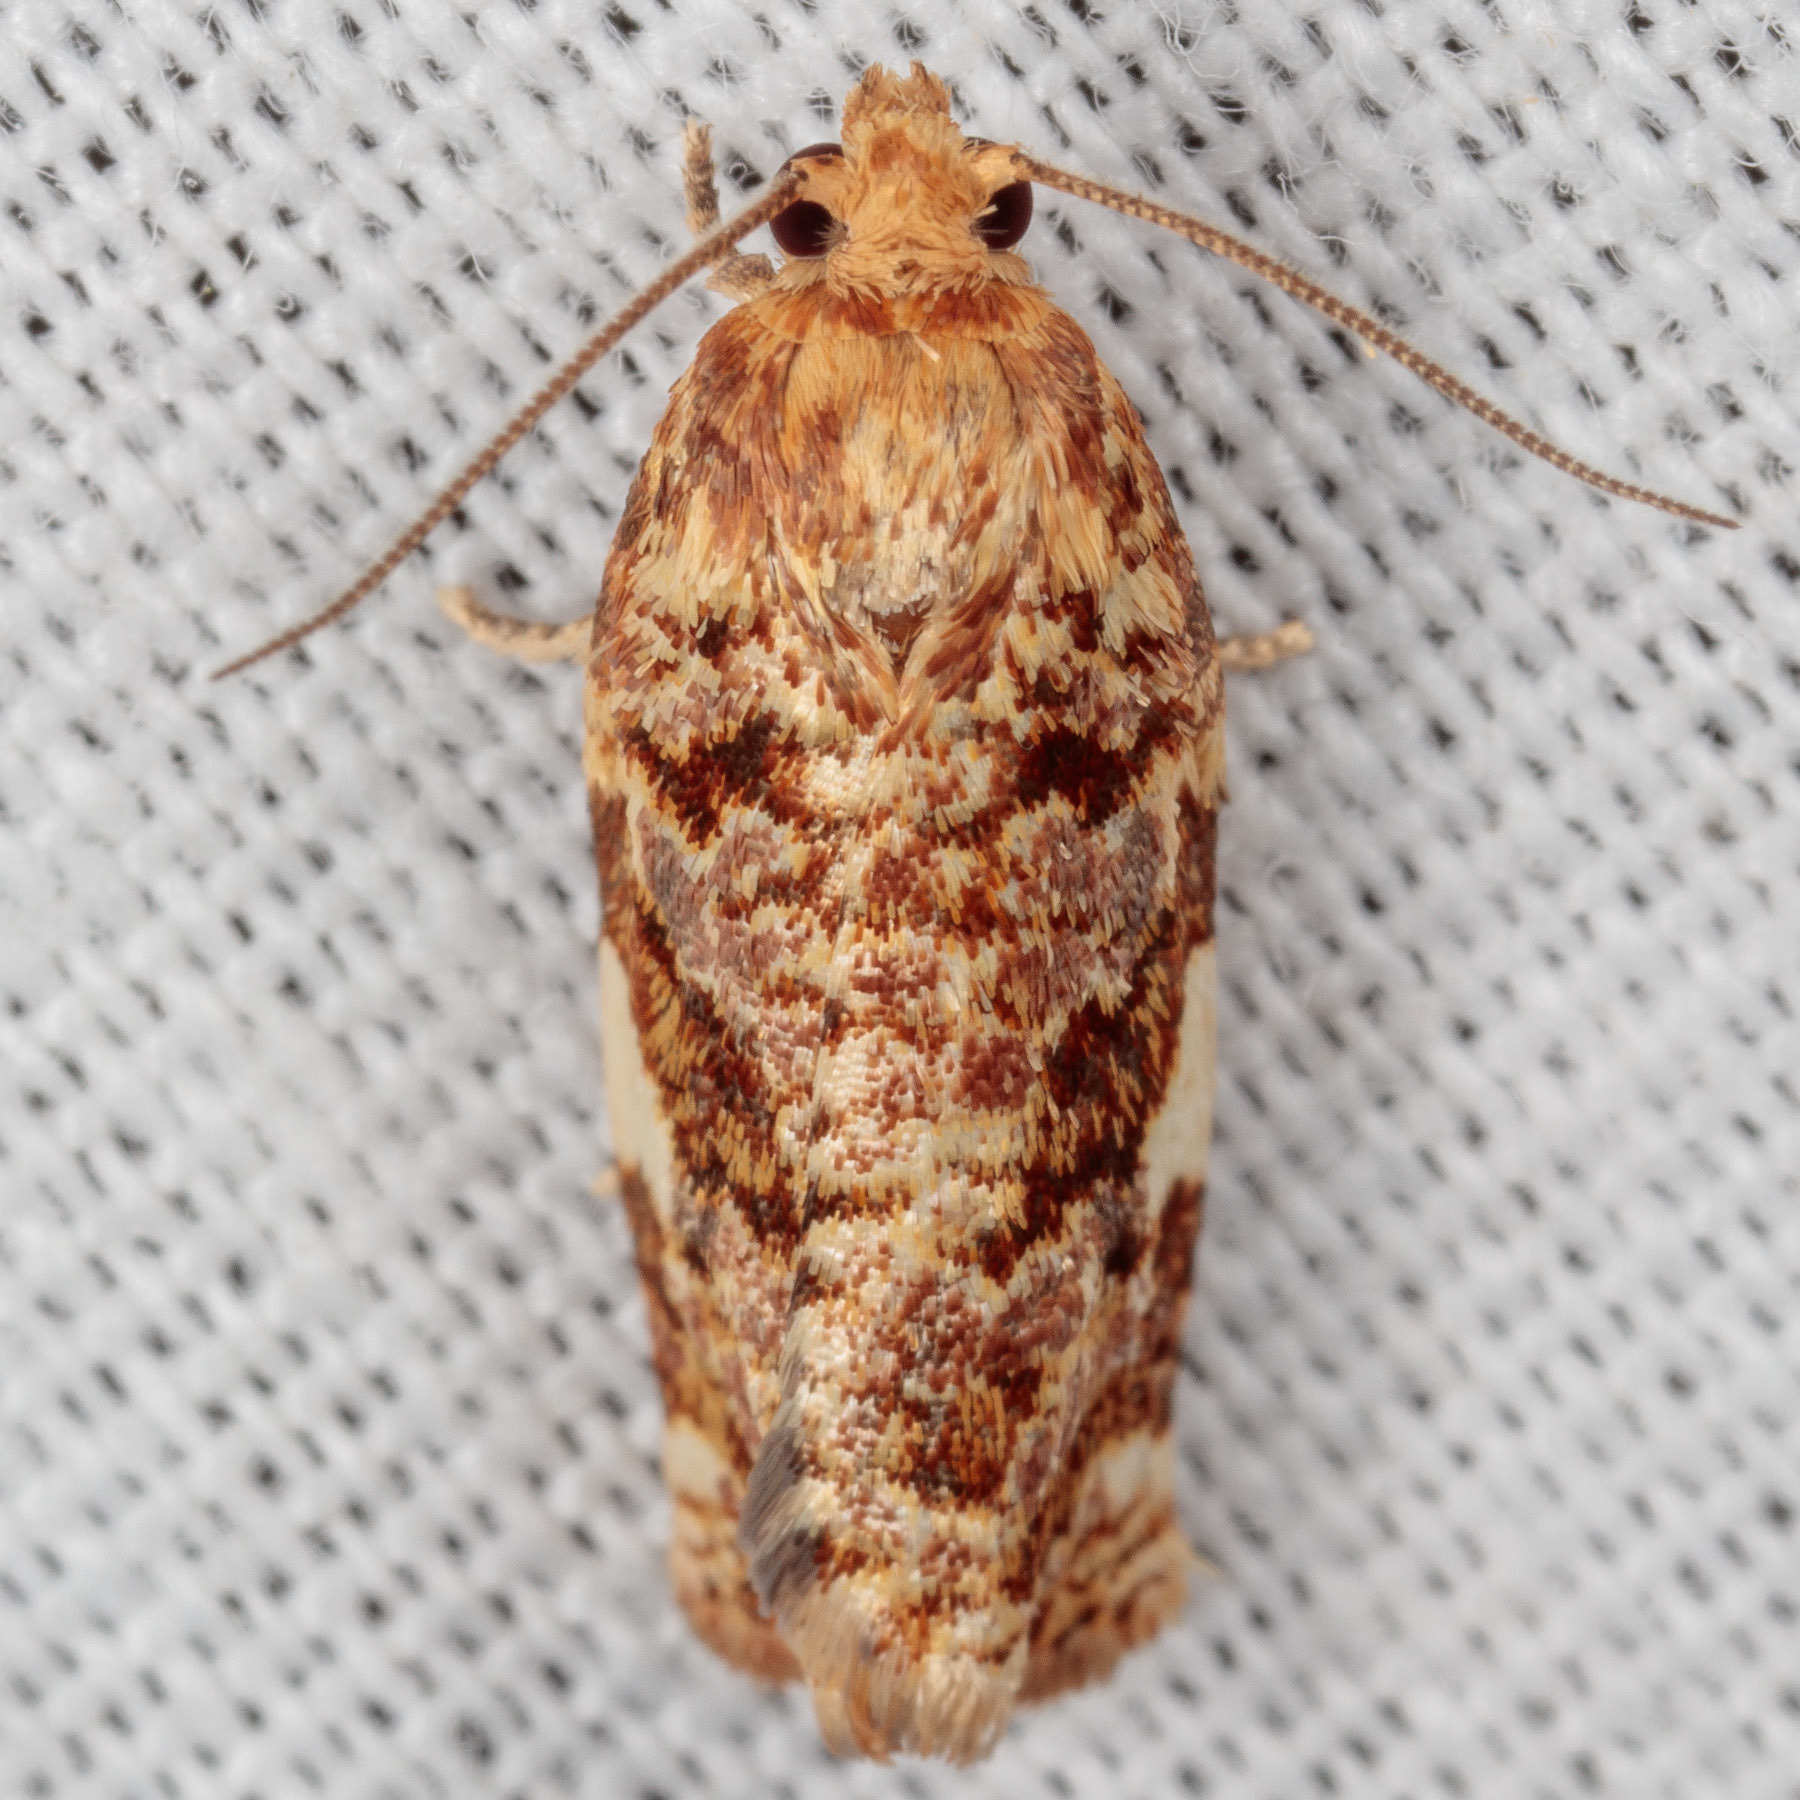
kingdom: Animalia
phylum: Arthropoda
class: Insecta
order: Lepidoptera
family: Tortricidae
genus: Archips
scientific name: Archips argyrospila
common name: Fruit-tree leafroller moth
